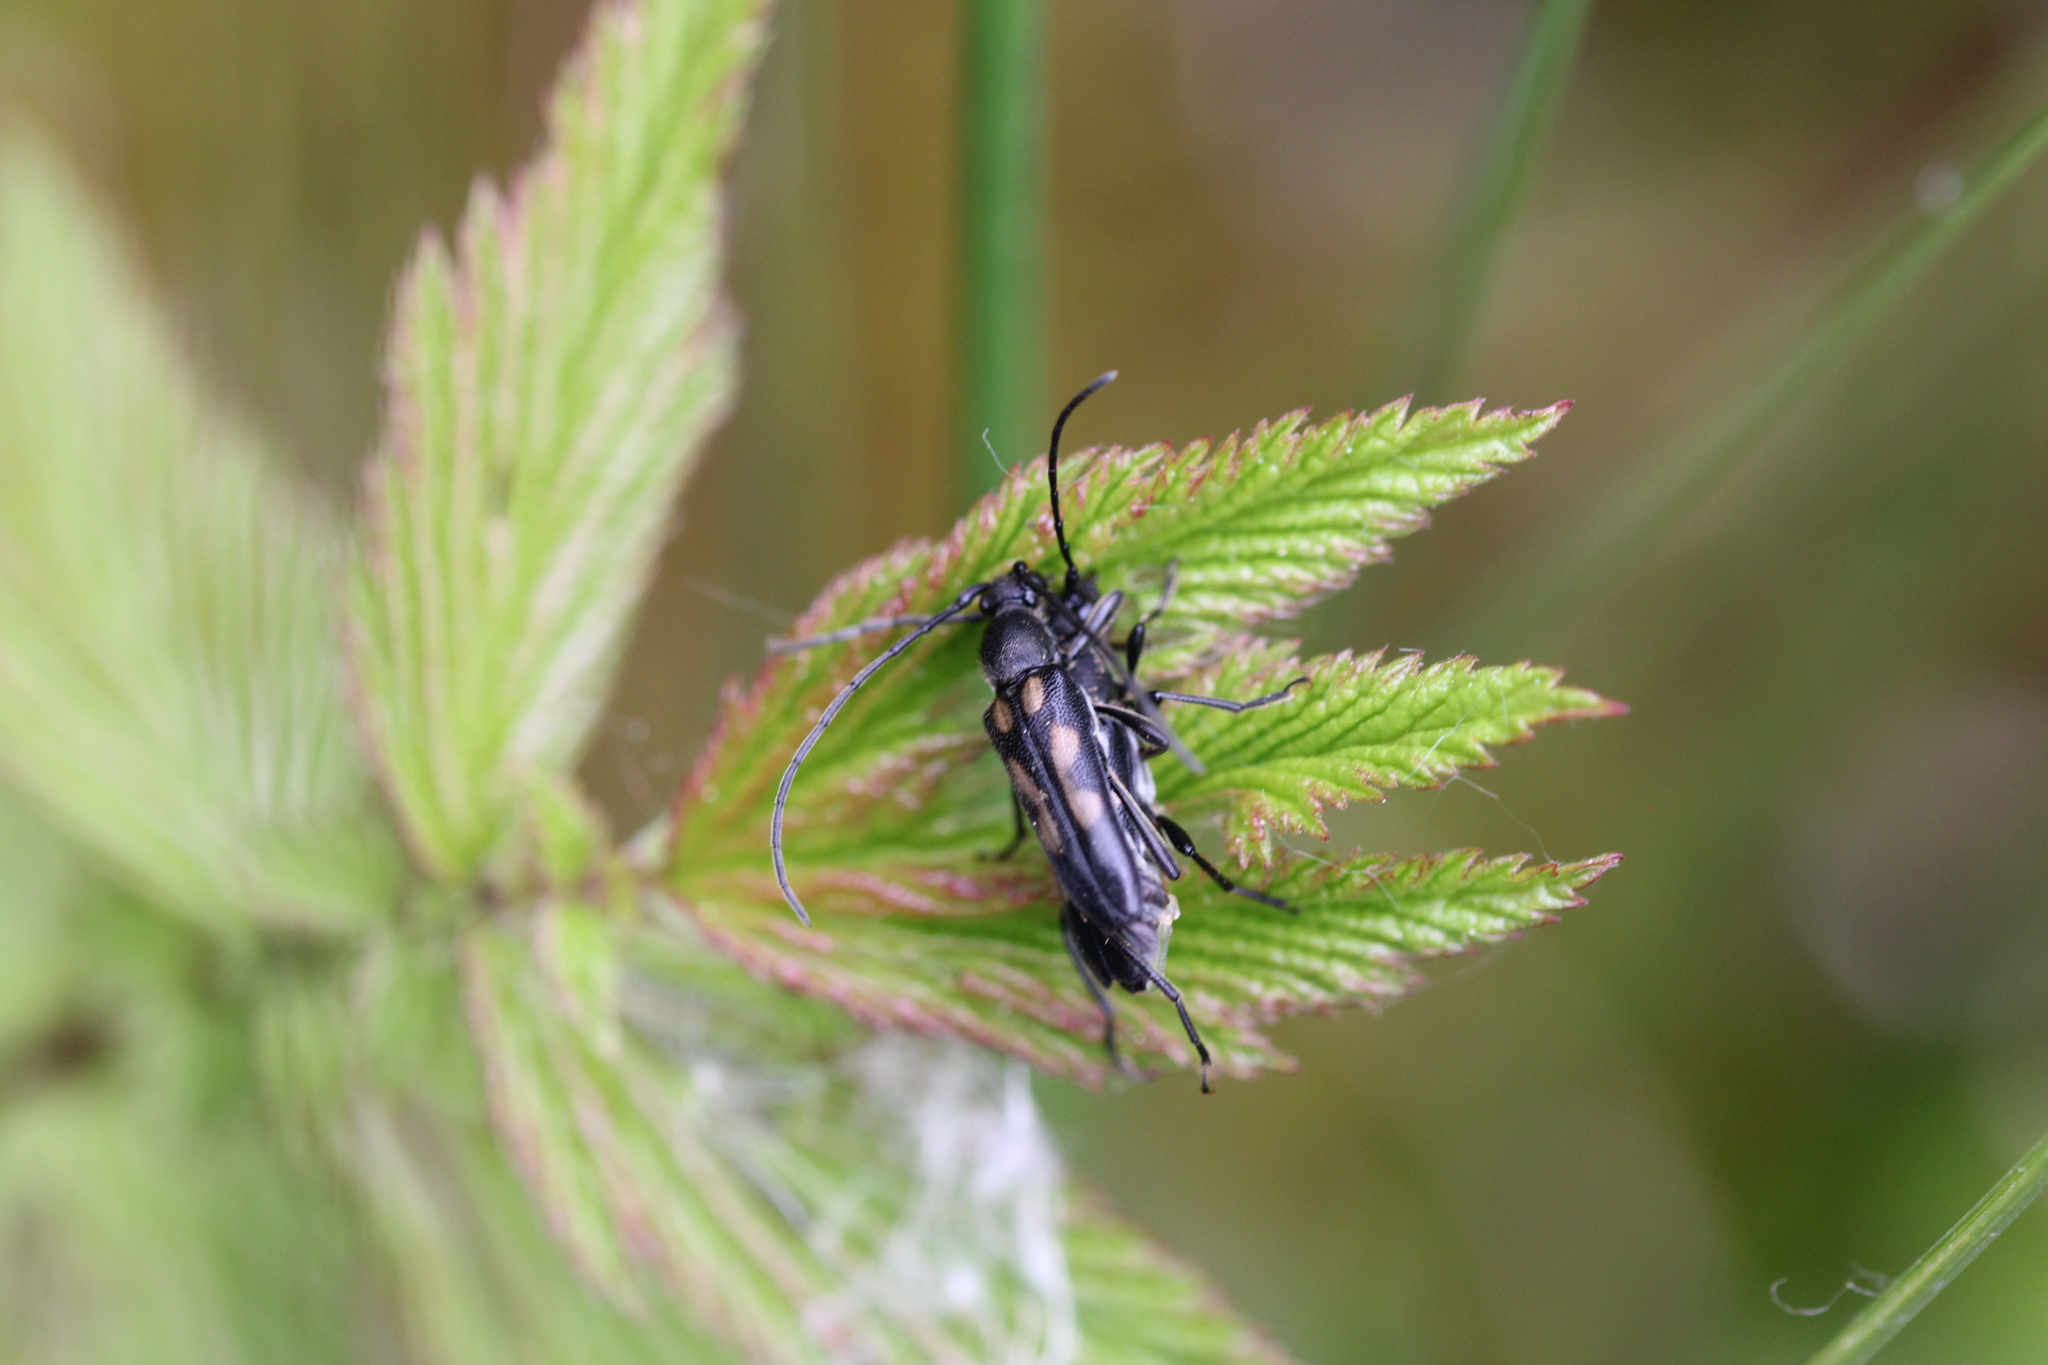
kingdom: Animalia
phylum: Arthropoda
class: Insecta
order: Coleoptera
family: Cerambycidae
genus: Anoplodera
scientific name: Anoplodera sexguttata
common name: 6 spotted longhorn
